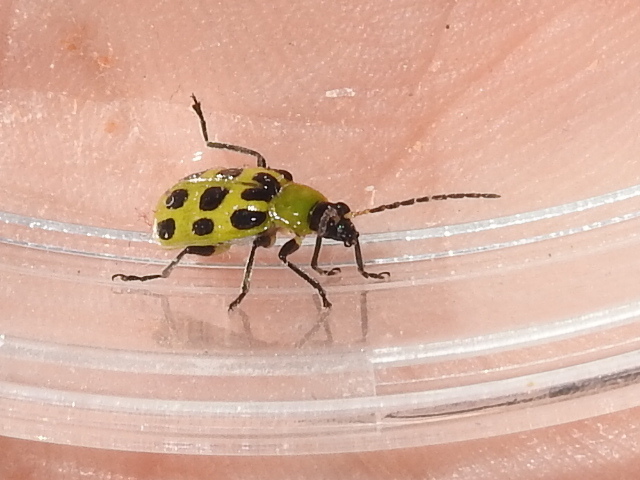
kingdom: Animalia
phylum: Arthropoda
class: Insecta
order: Coleoptera
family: Chrysomelidae
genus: Diabrotica
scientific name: Diabrotica undecimpunctata
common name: Spotted cucumber beetle
